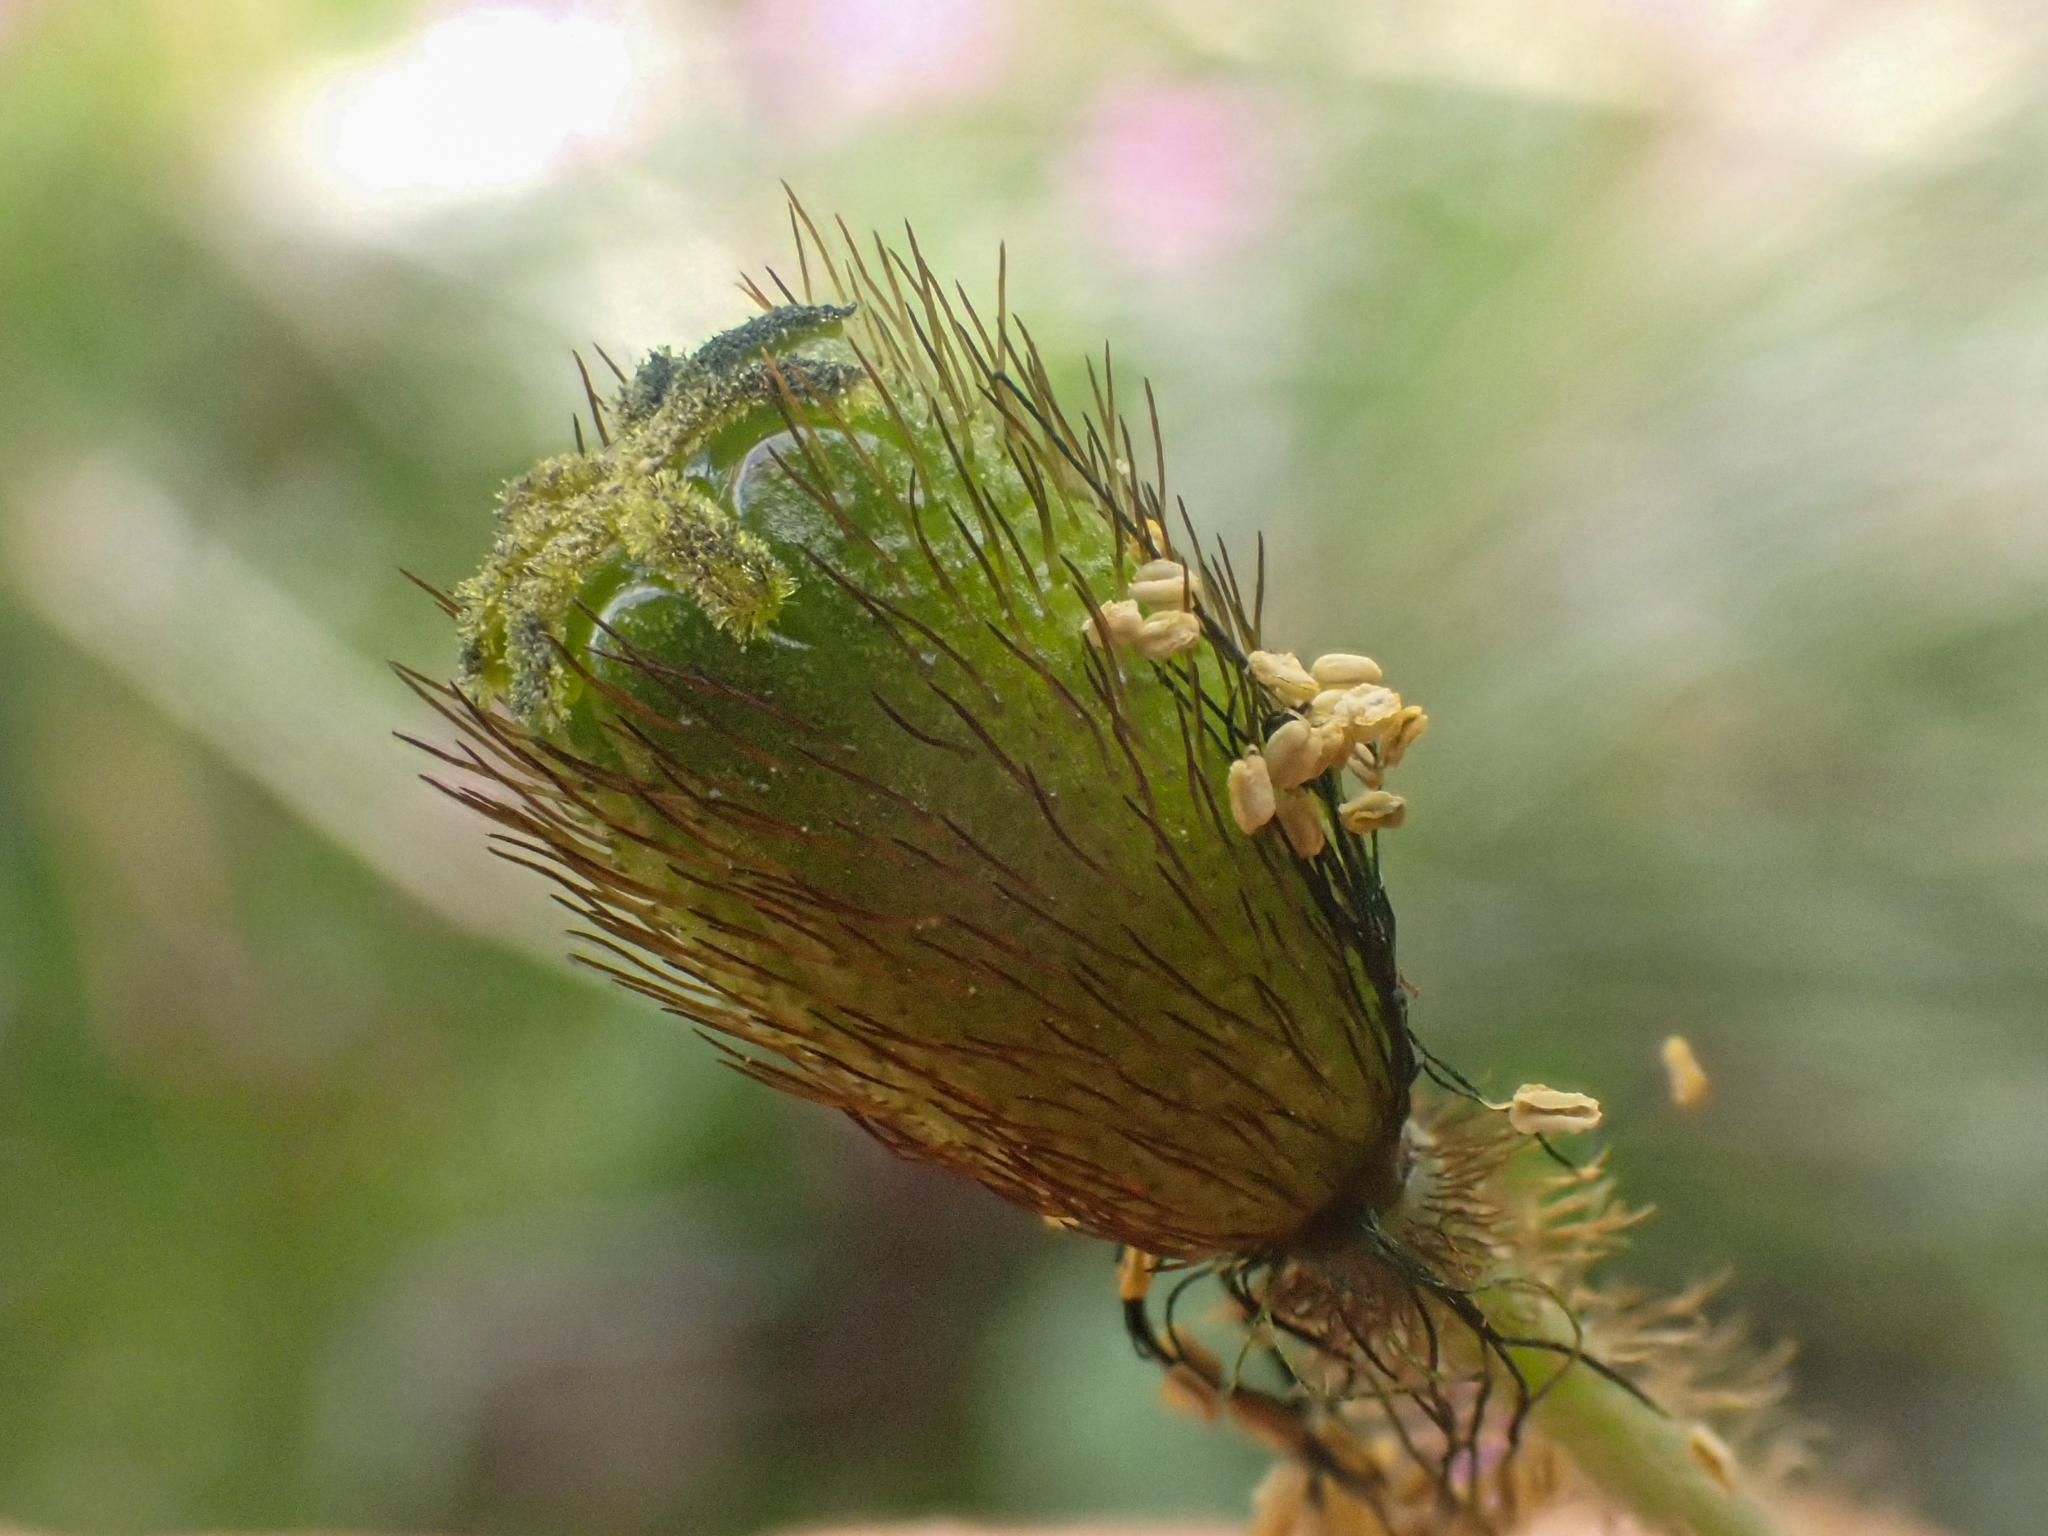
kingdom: Plantae
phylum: Tracheophyta
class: Magnoliopsida
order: Ranunculales
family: Papaveraceae
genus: Papaver
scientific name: Papaver radicatum
